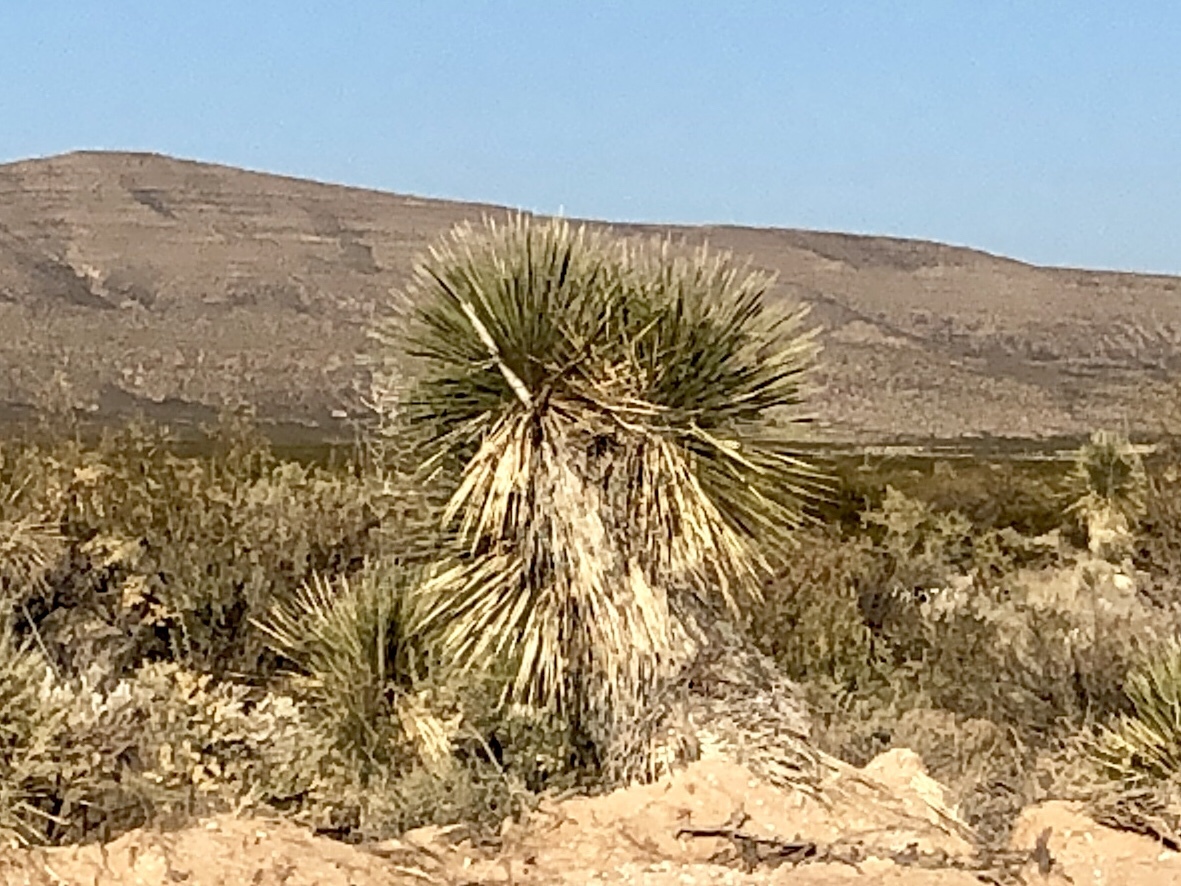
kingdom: Plantae
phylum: Tracheophyta
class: Liliopsida
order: Asparagales
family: Asparagaceae
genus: Yucca
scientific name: Yucca elata
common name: Palmella
